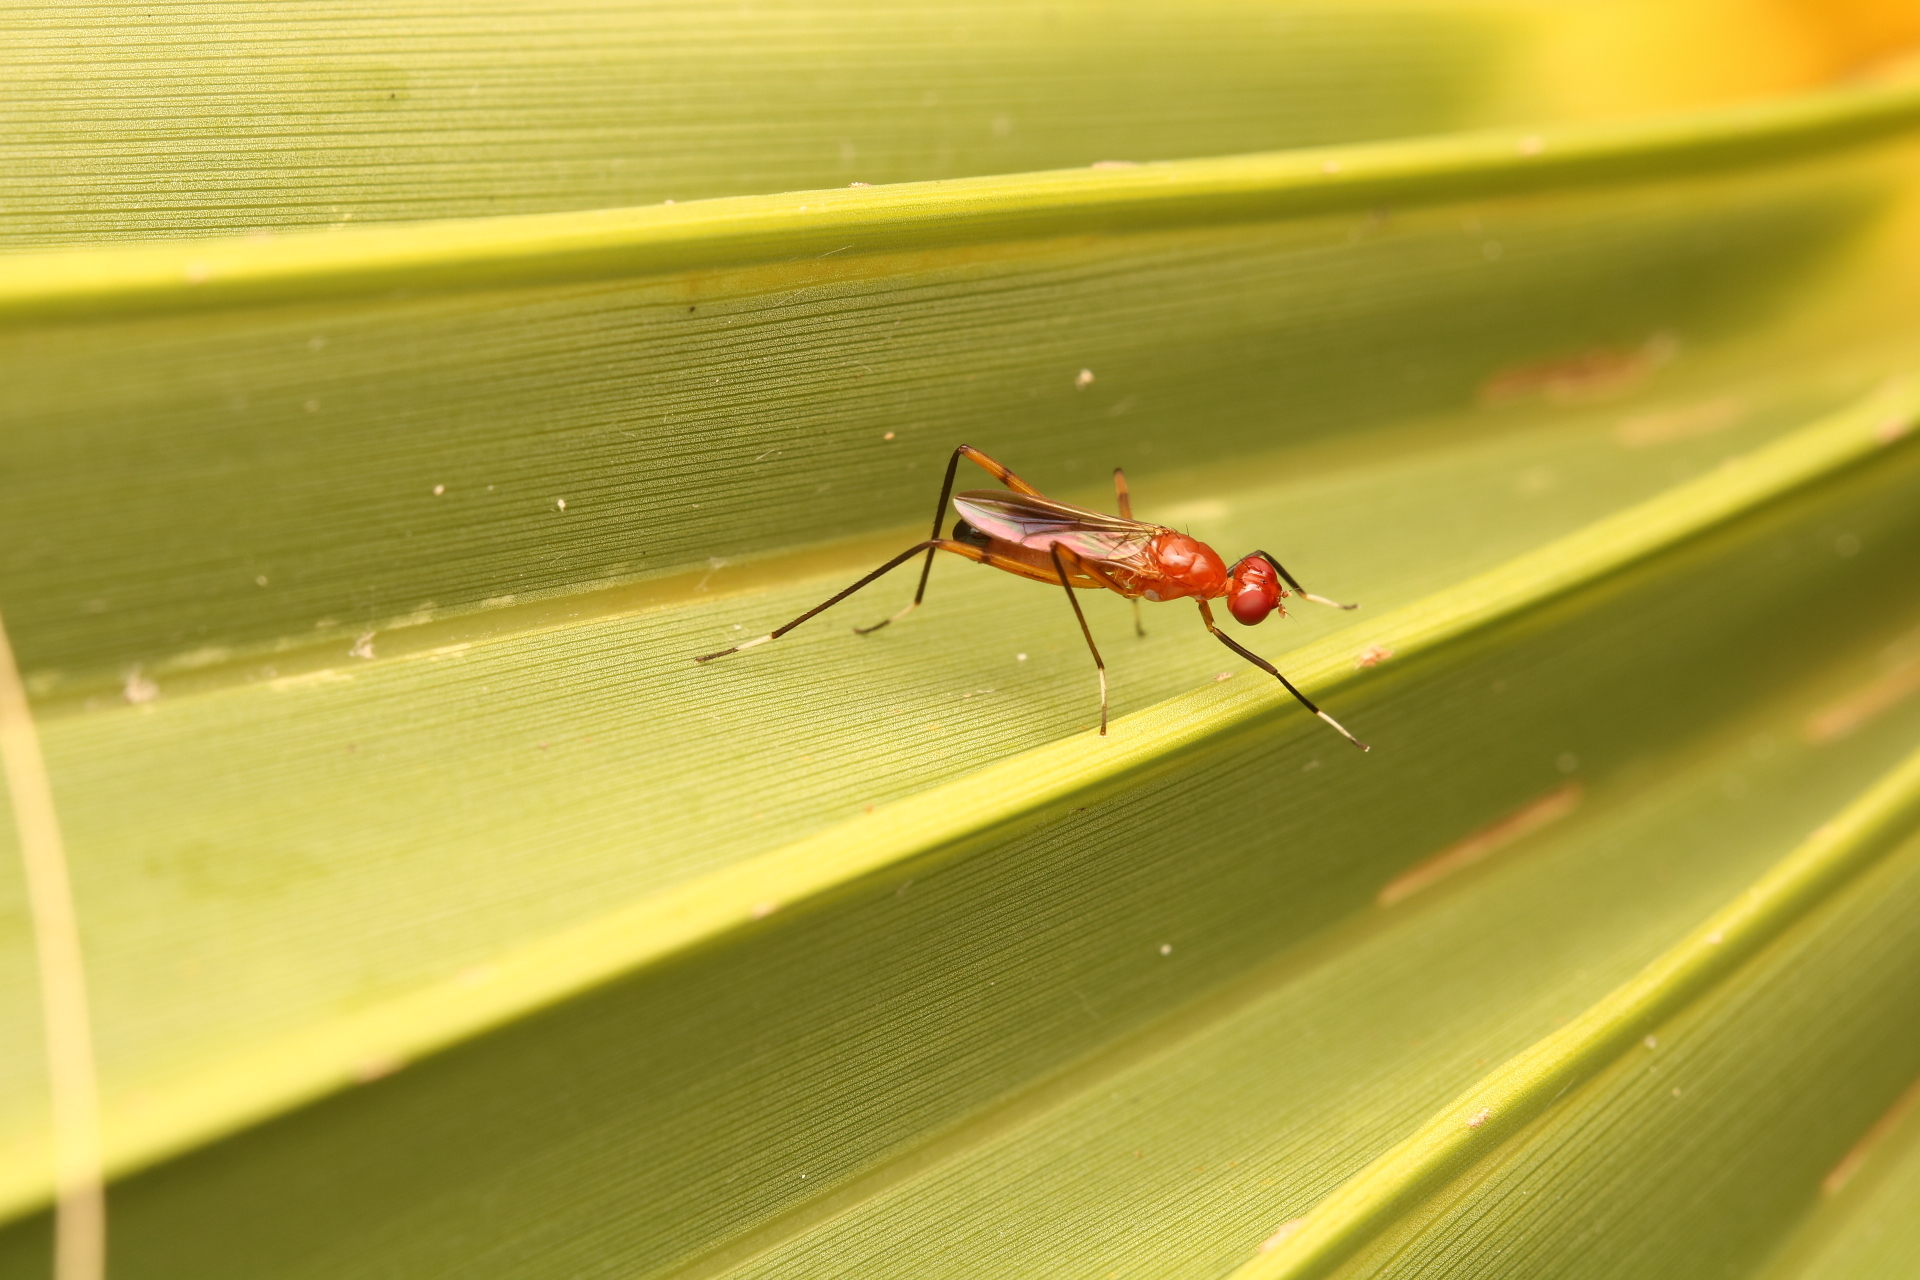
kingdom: Animalia
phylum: Arthropoda
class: Insecta
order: Diptera
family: Micropezidae
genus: Grallipeza
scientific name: Grallipeza nebulosa
